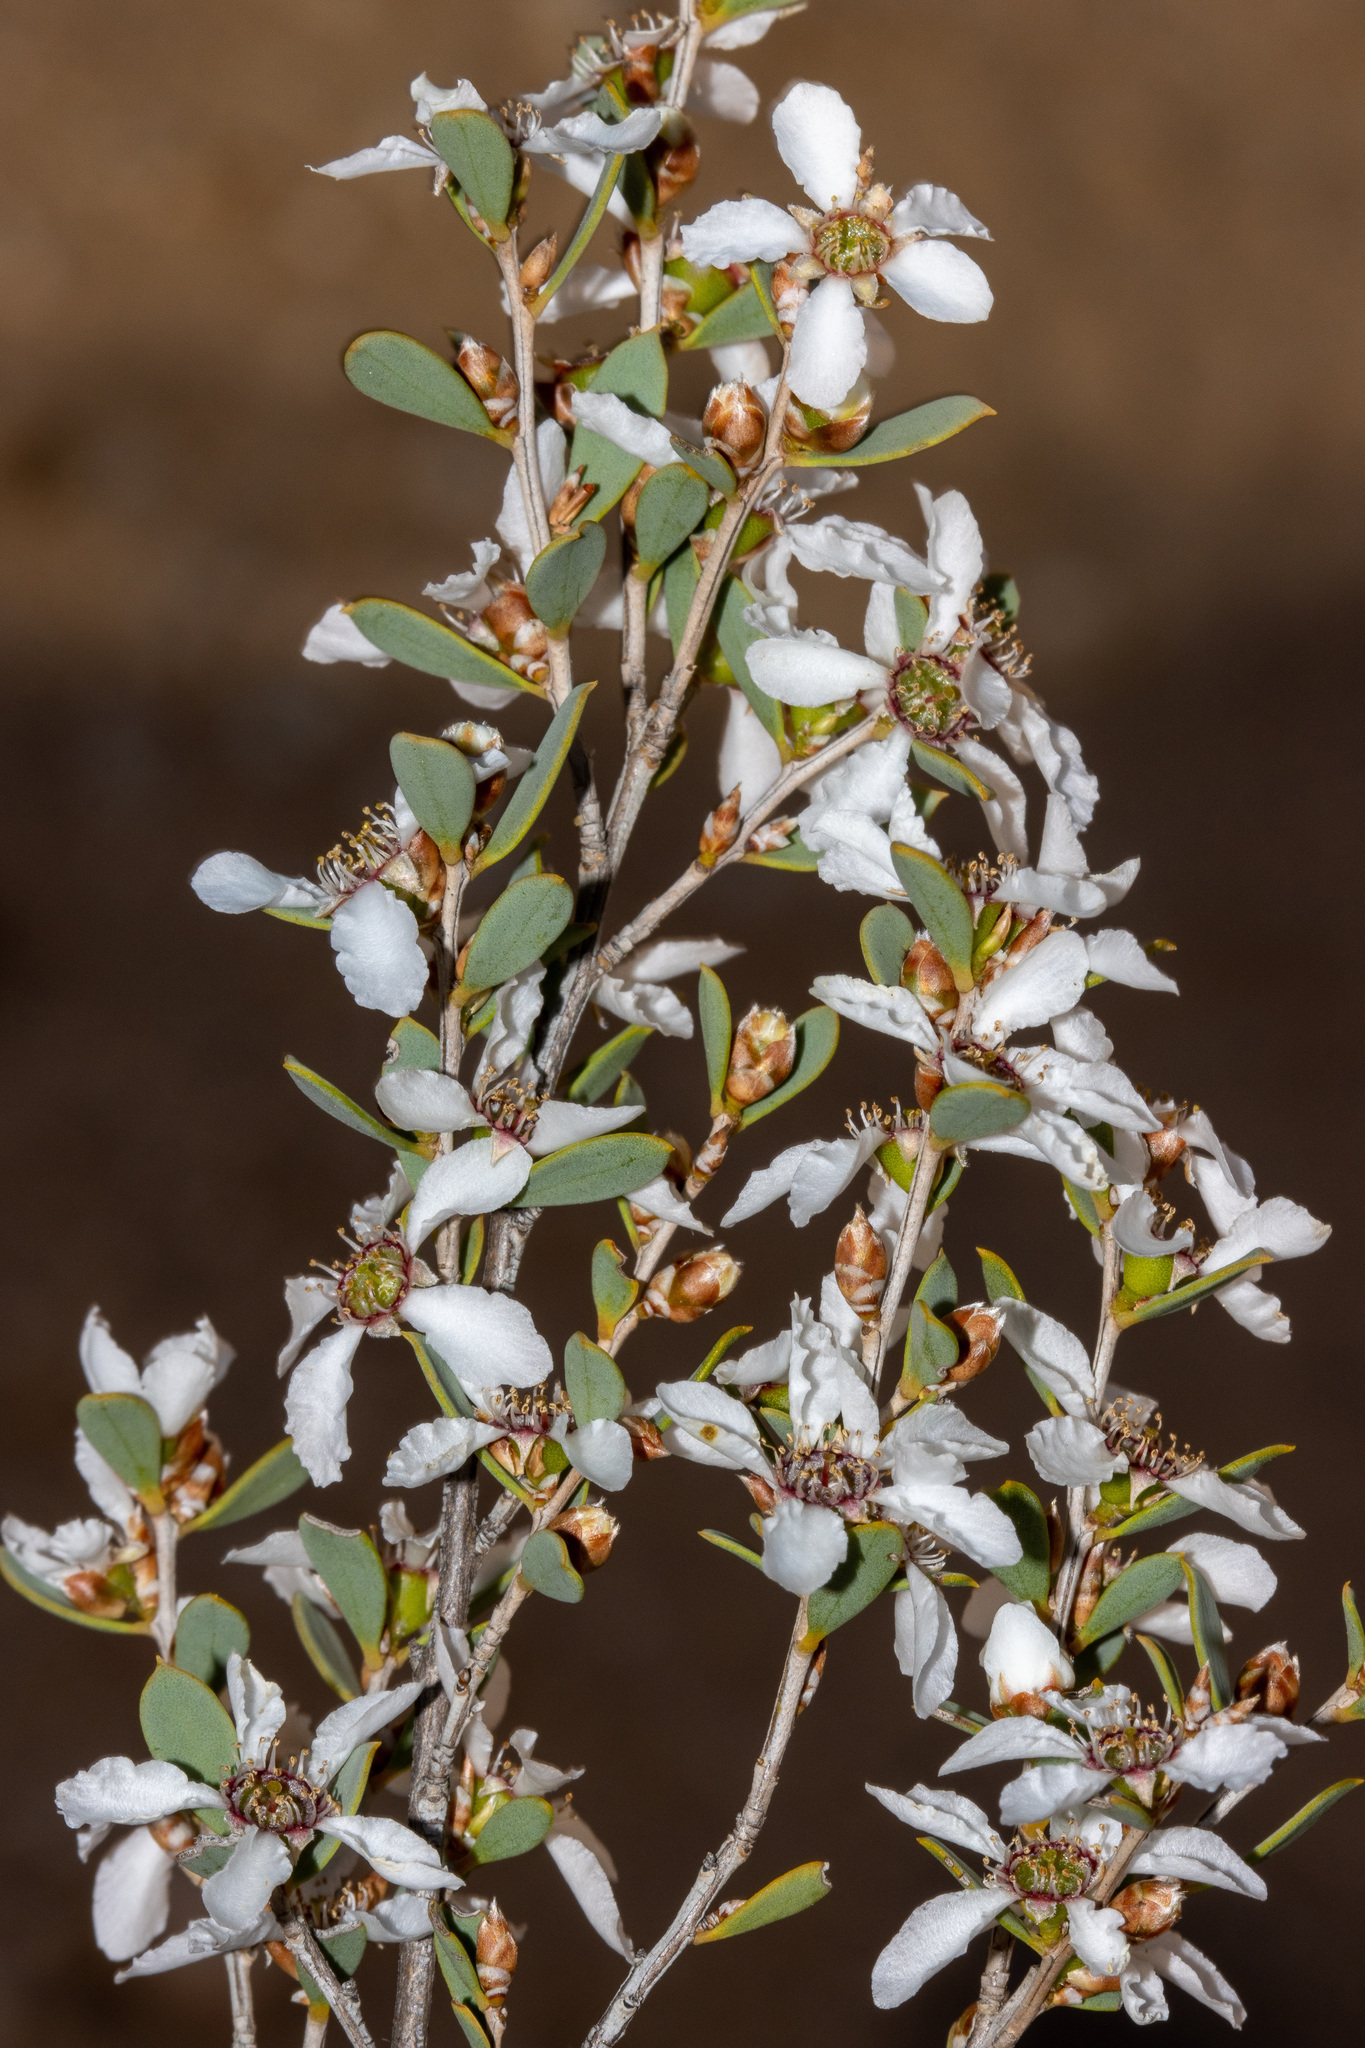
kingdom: Plantae
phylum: Tracheophyta
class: Magnoliopsida
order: Myrtales
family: Myrtaceae
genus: Leptospermum
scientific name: Leptospermum coriaceum
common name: Mallee teatree
